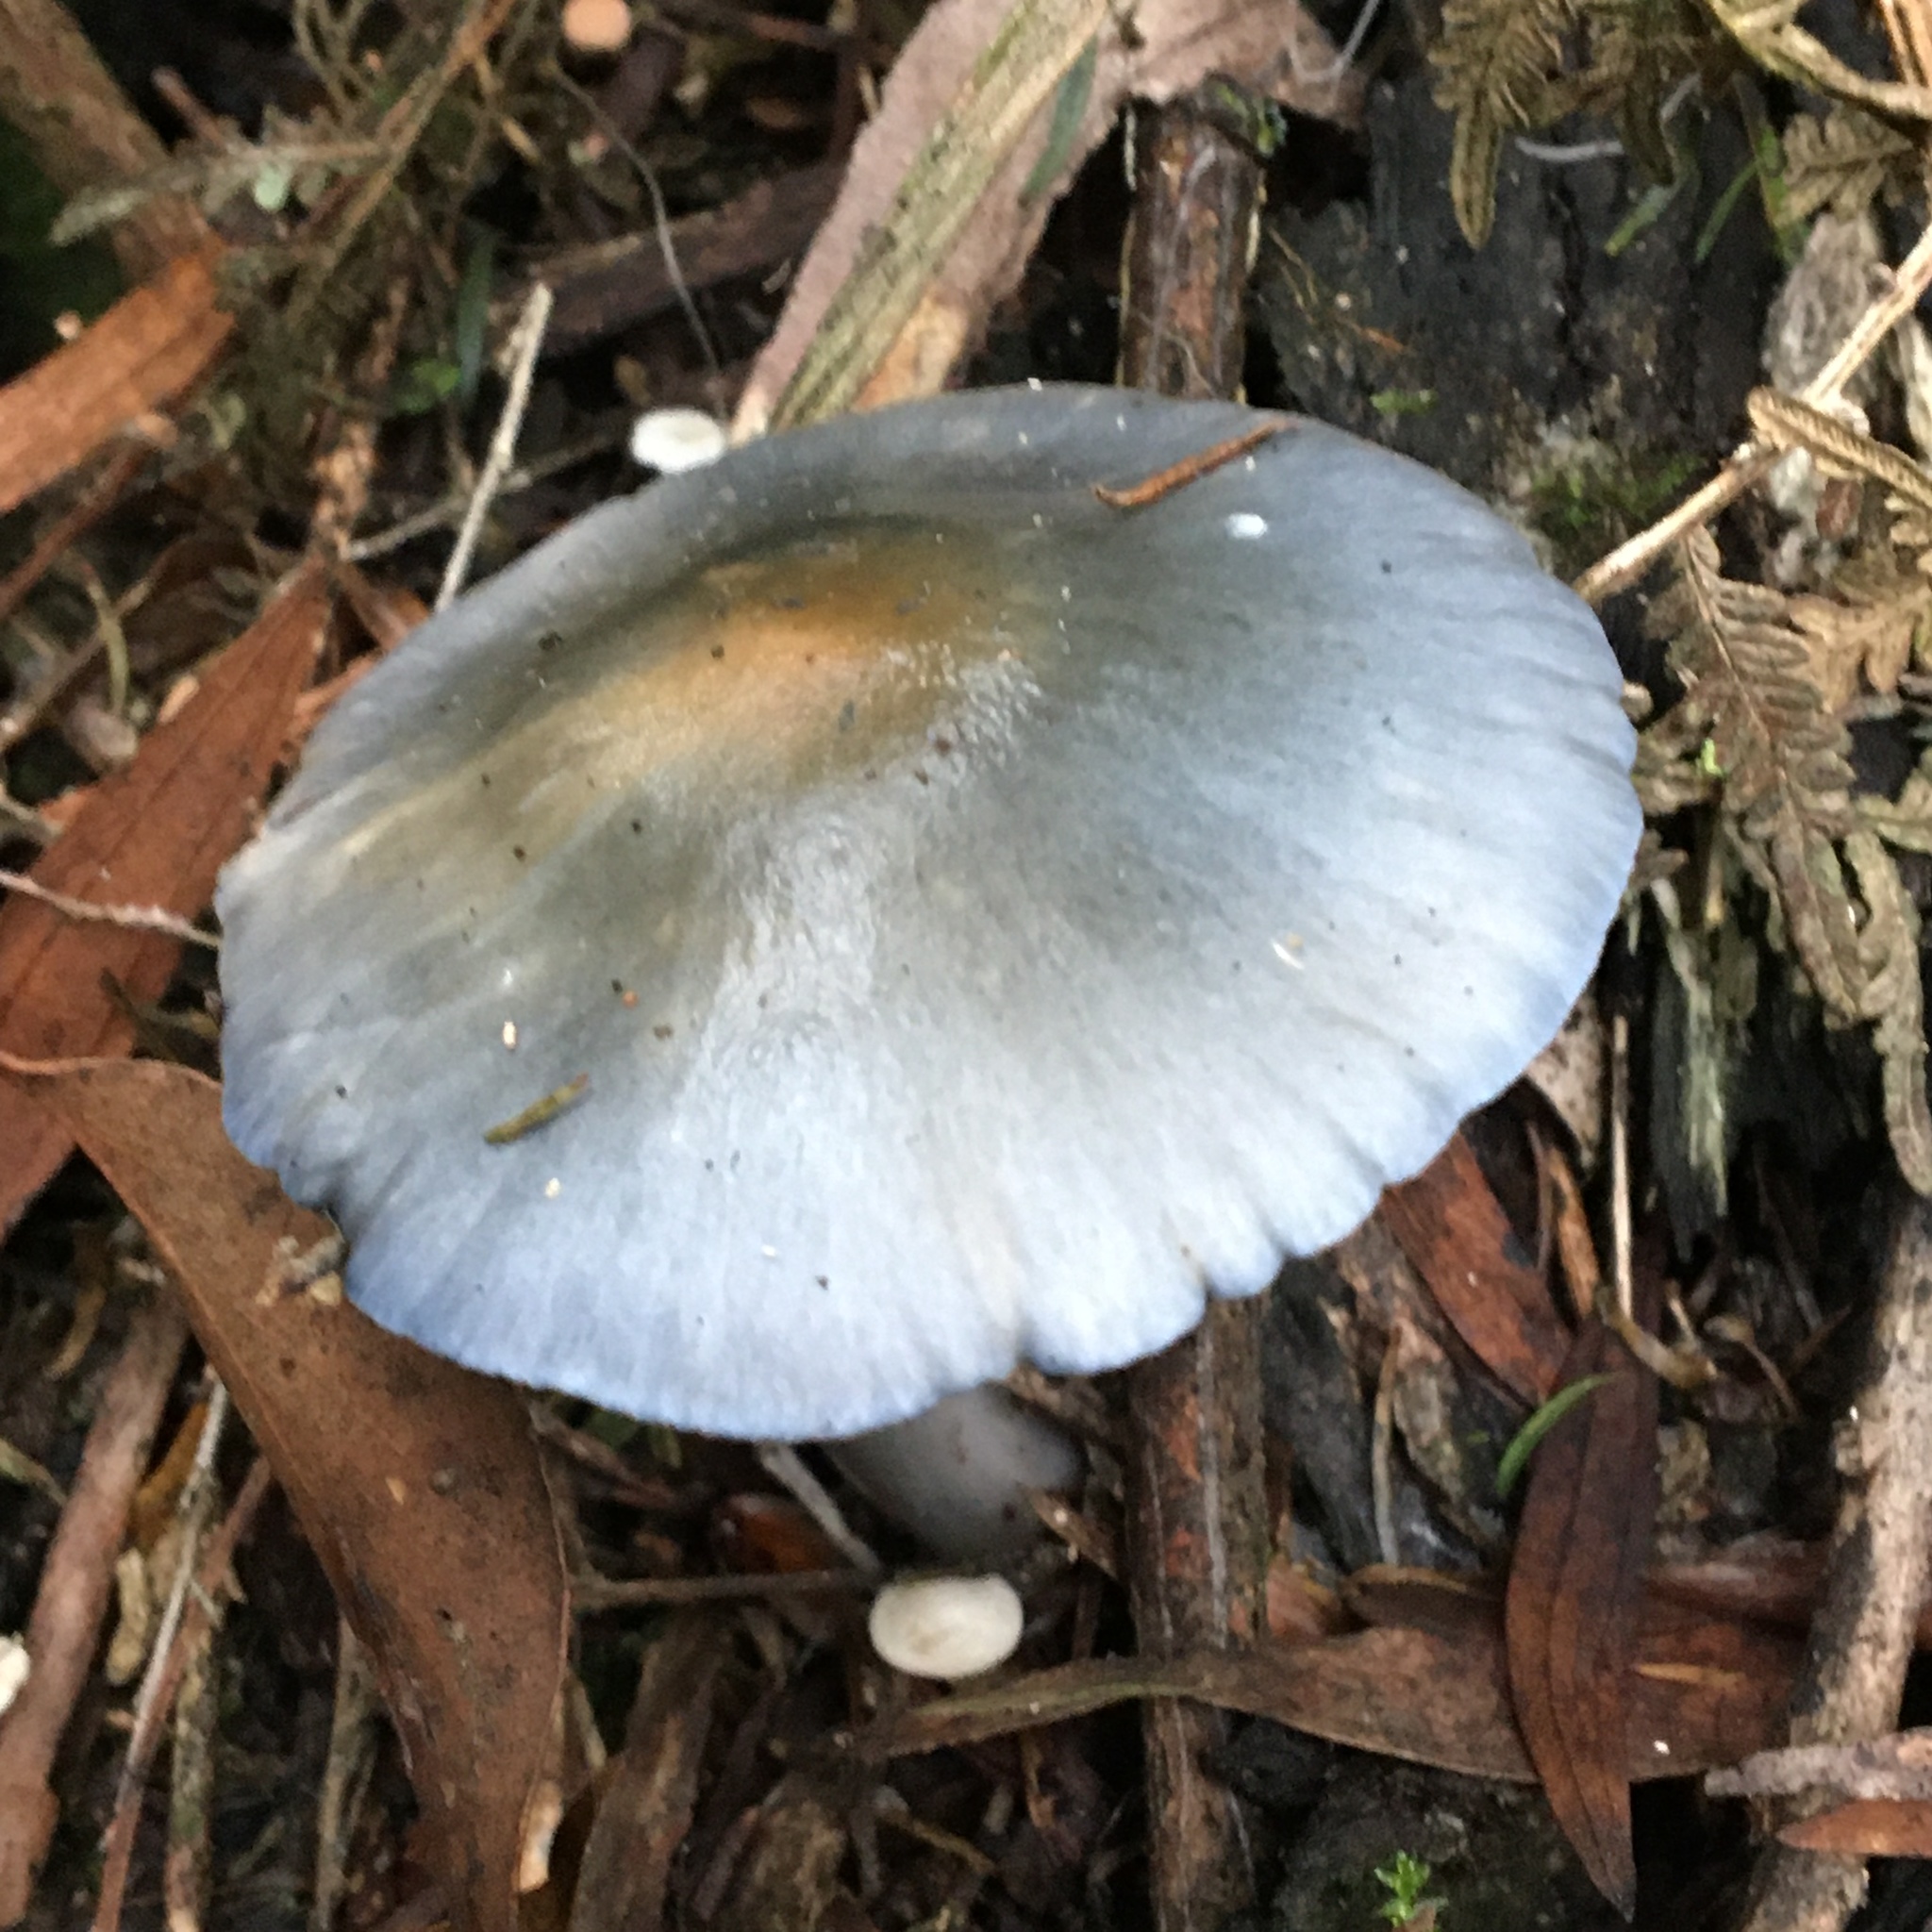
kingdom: Fungi
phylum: Basidiomycota
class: Agaricomycetes
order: Agaricales
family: Cortinariaceae
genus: Cortinarius
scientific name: Cortinarius rotundisporus
